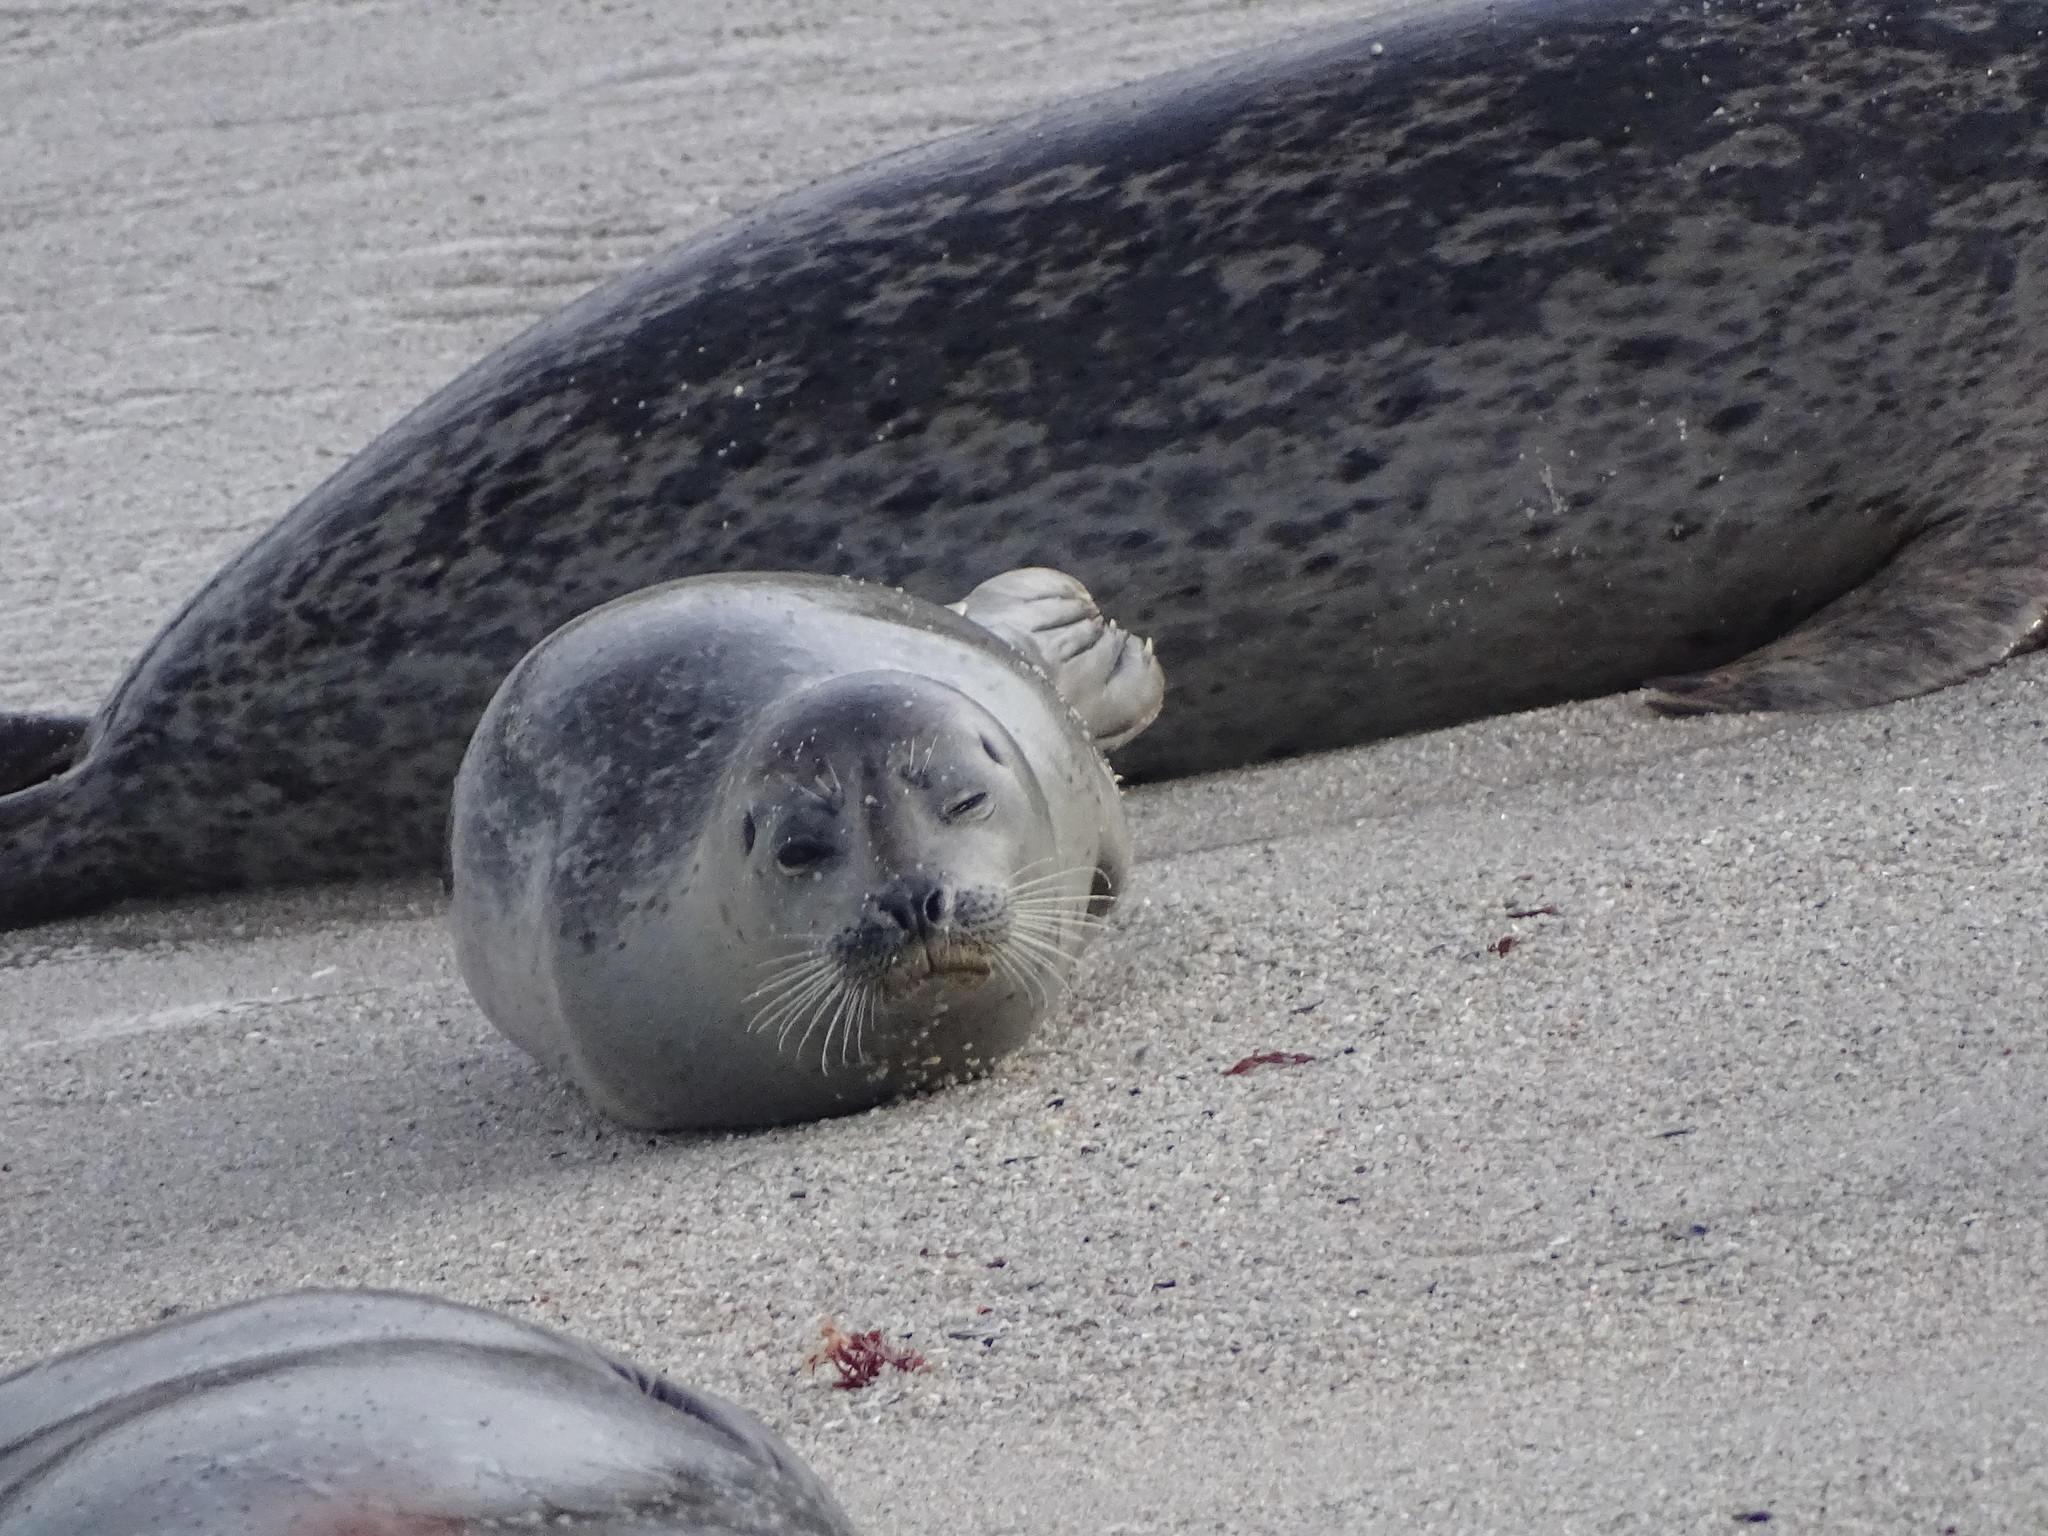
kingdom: Animalia
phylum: Chordata
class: Mammalia
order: Carnivora
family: Phocidae
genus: Phoca
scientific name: Phoca vitulina
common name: Harbor seal
